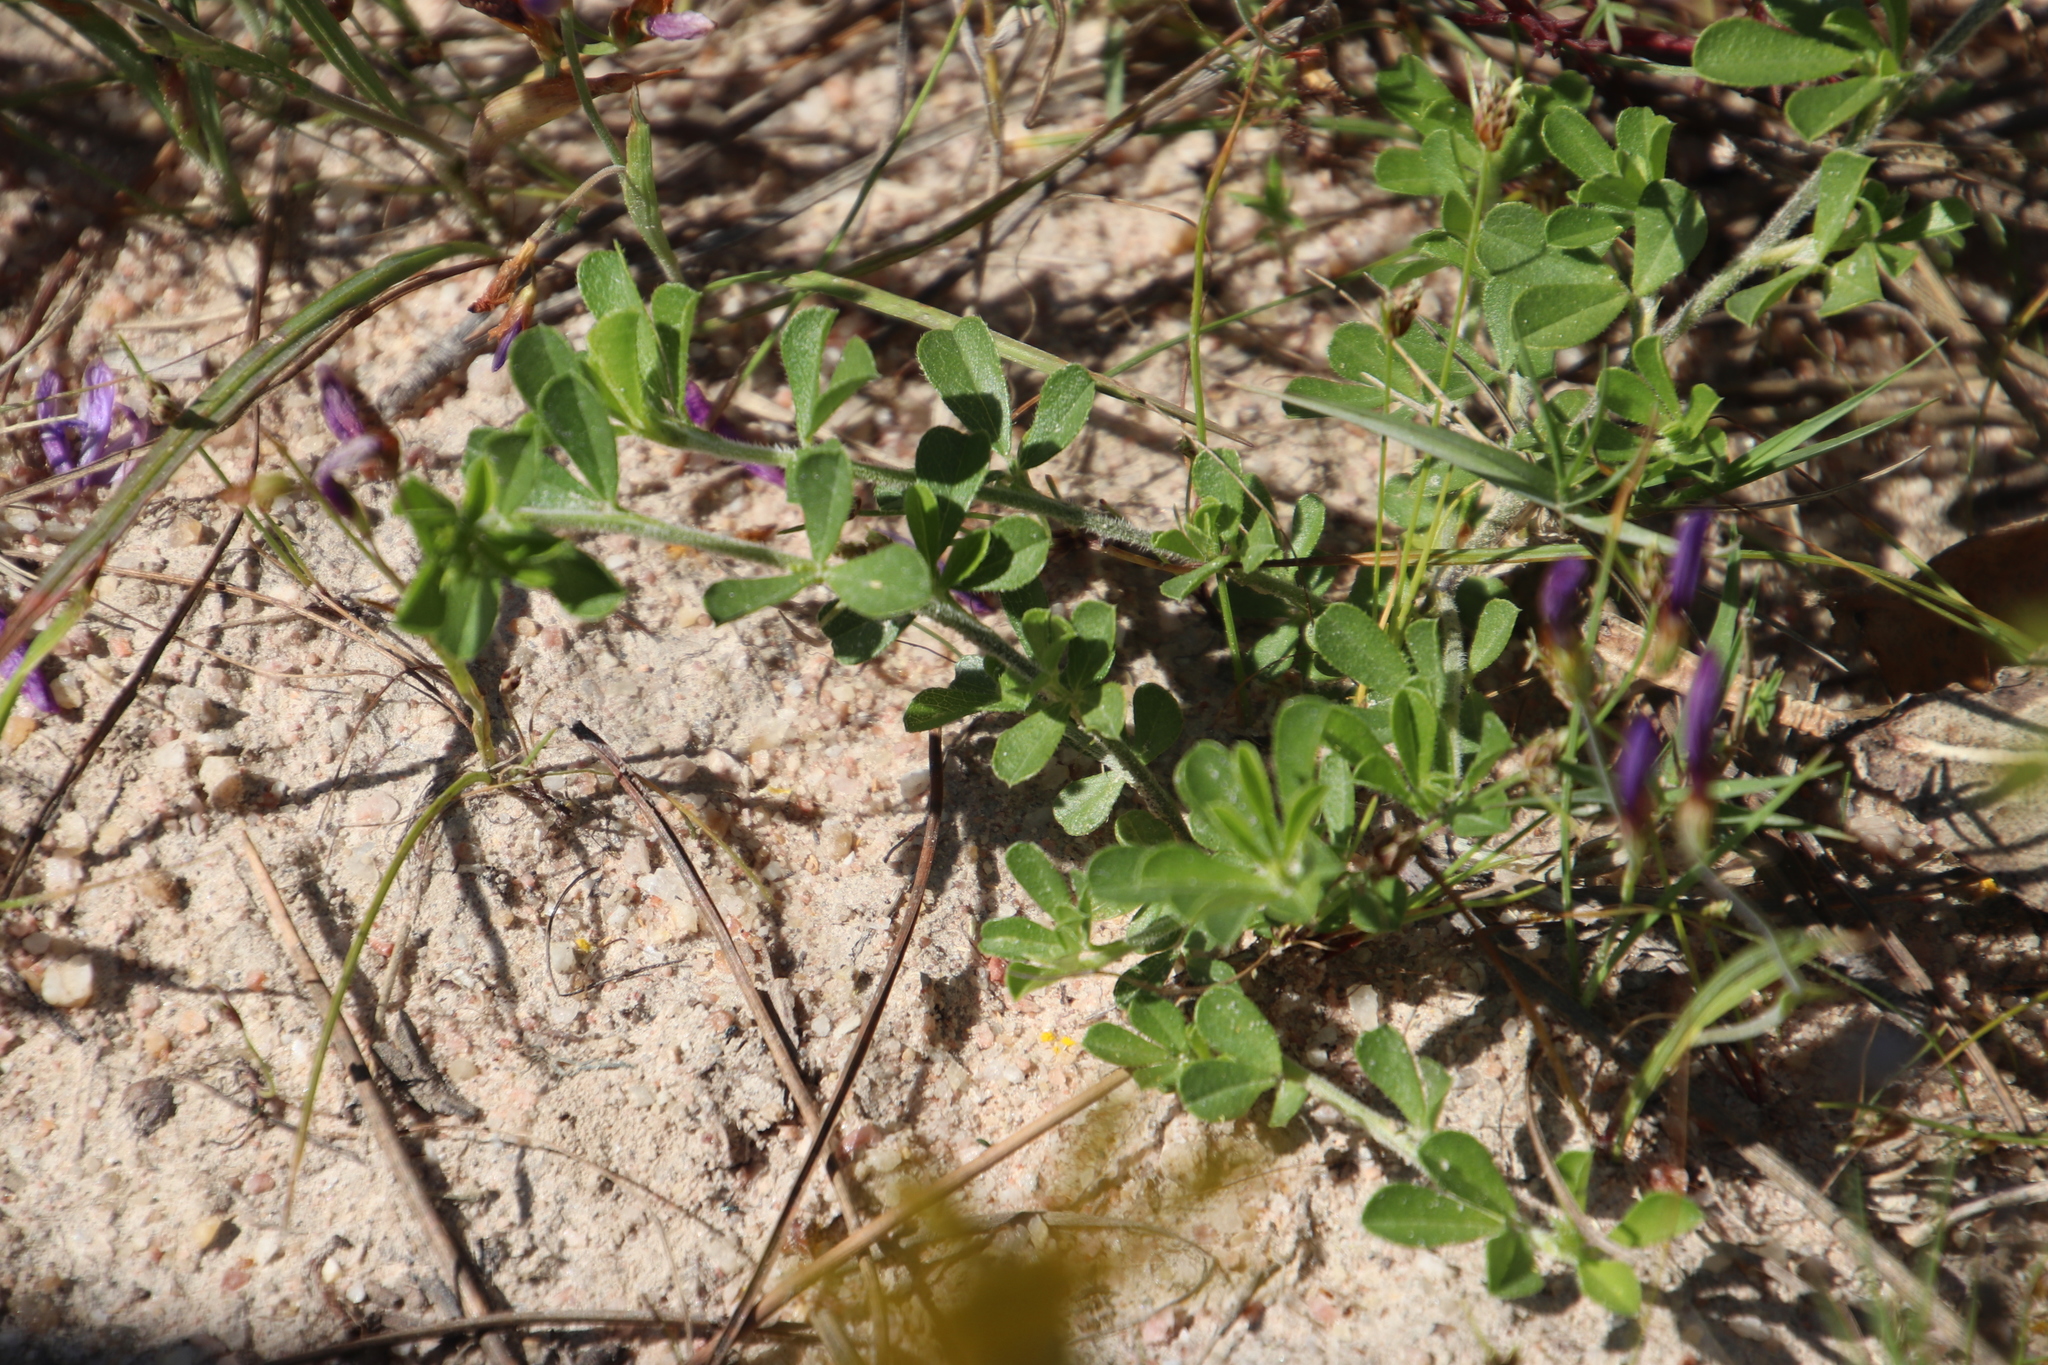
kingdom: Plantae
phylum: Tracheophyta
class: Magnoliopsida
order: Fabales
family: Fabaceae
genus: Psoralea
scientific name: Psoralea
